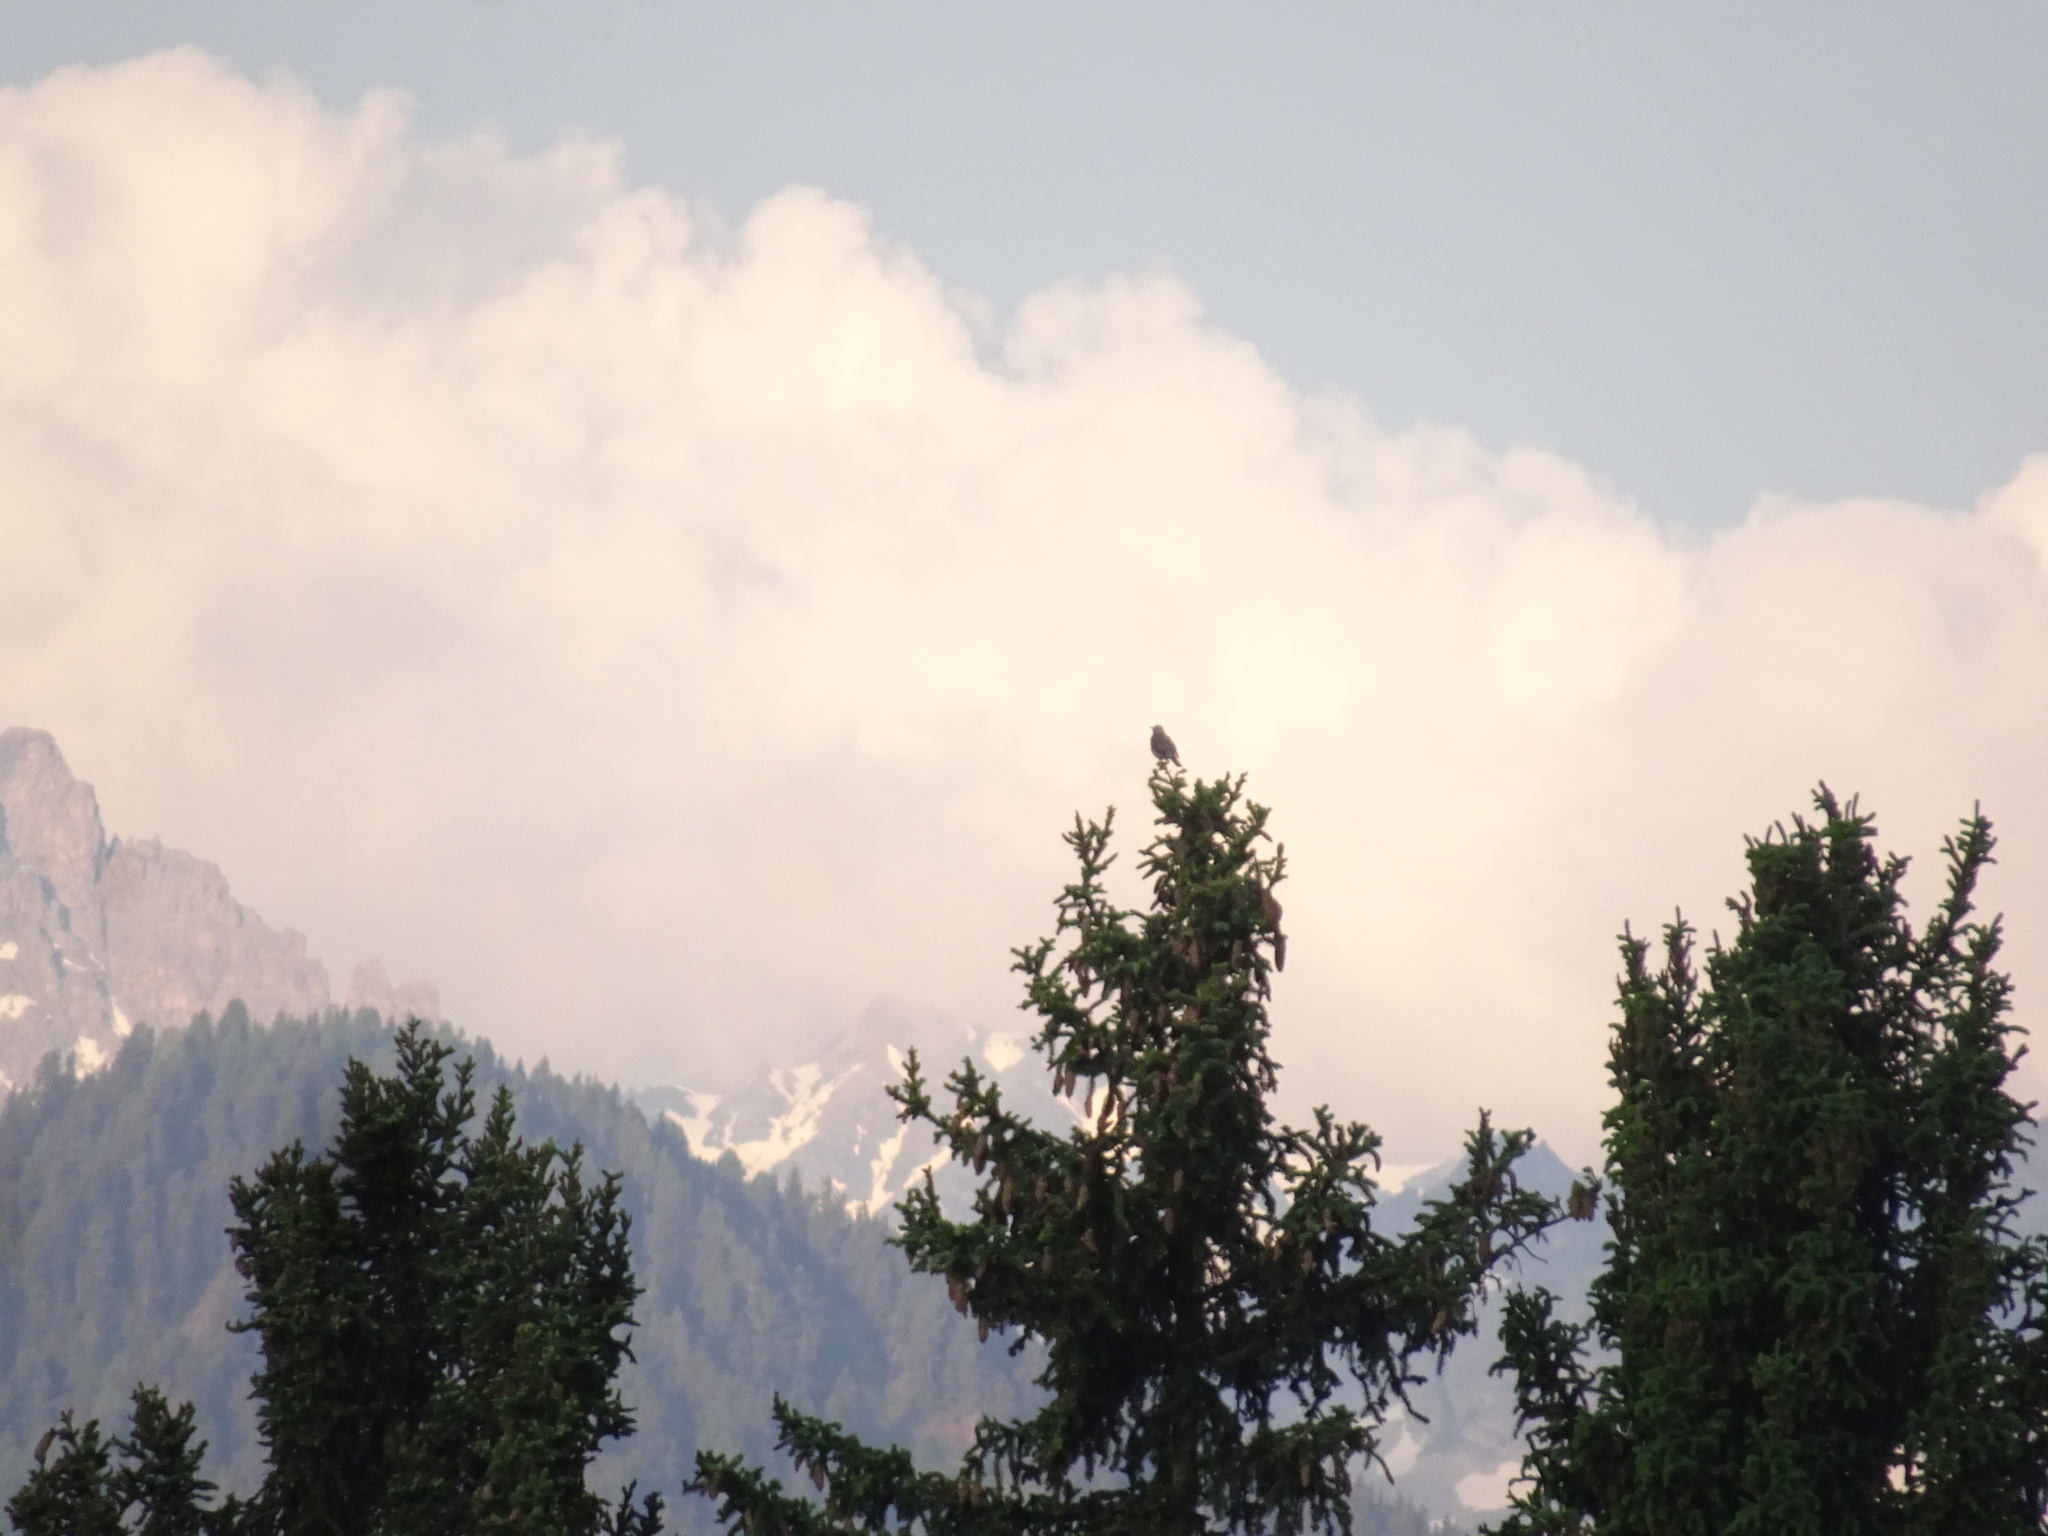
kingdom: Animalia
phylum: Chordata
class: Aves
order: Passeriformes
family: Turdidae
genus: Turdus
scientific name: Turdus pilaris
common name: Fieldfare
